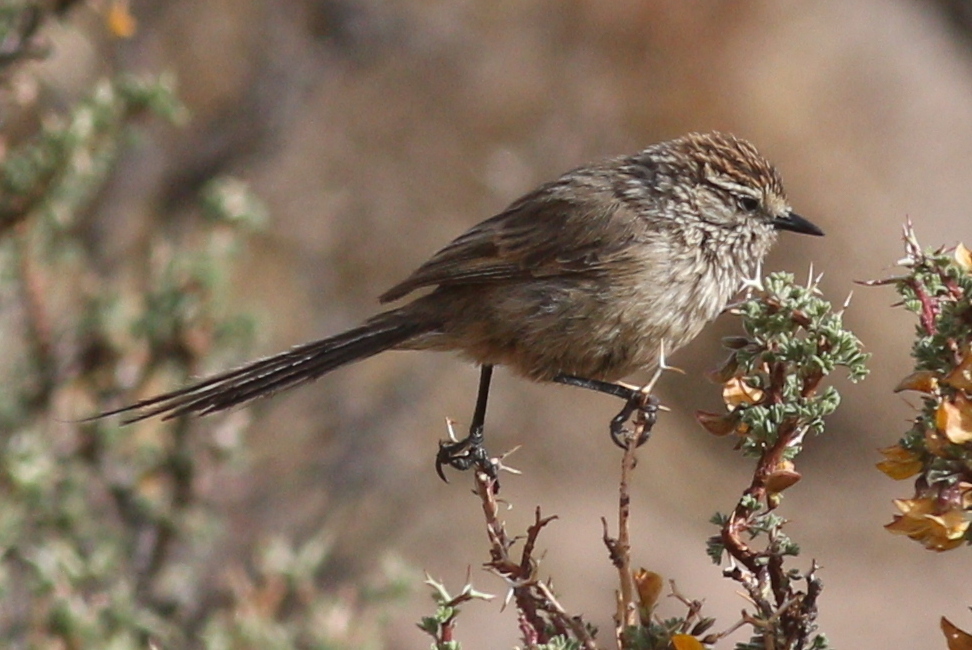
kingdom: Animalia
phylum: Chordata
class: Aves
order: Passeriformes
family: Furnariidae
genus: Leptasthenura
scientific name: Leptasthenura aegithaloides
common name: Plain-mantled tit-spinetail
